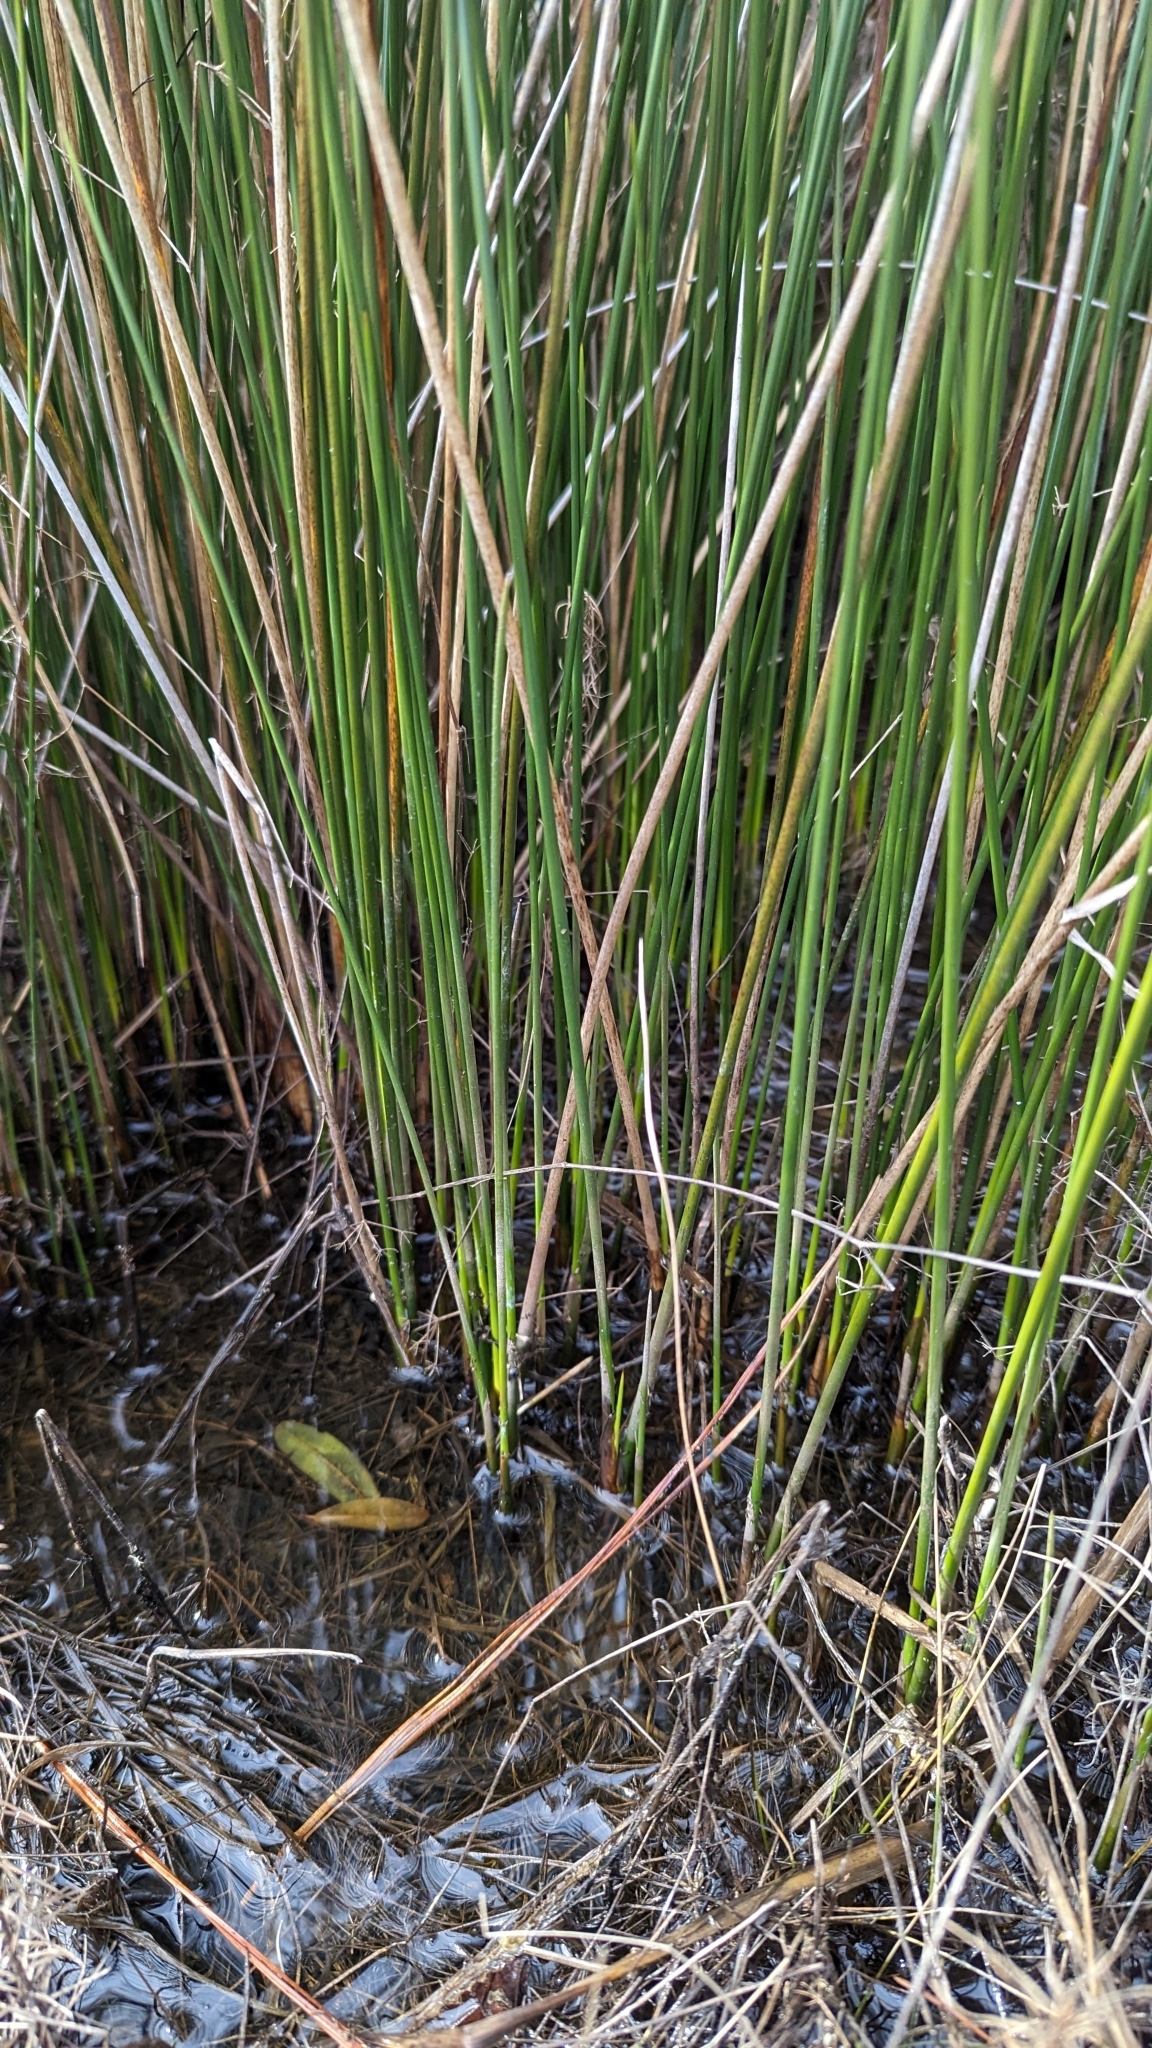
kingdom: Plantae
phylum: Tracheophyta
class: Liliopsida
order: Poales
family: Juncaceae
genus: Juncus
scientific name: Juncus roemerianus
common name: Roemer's rush
